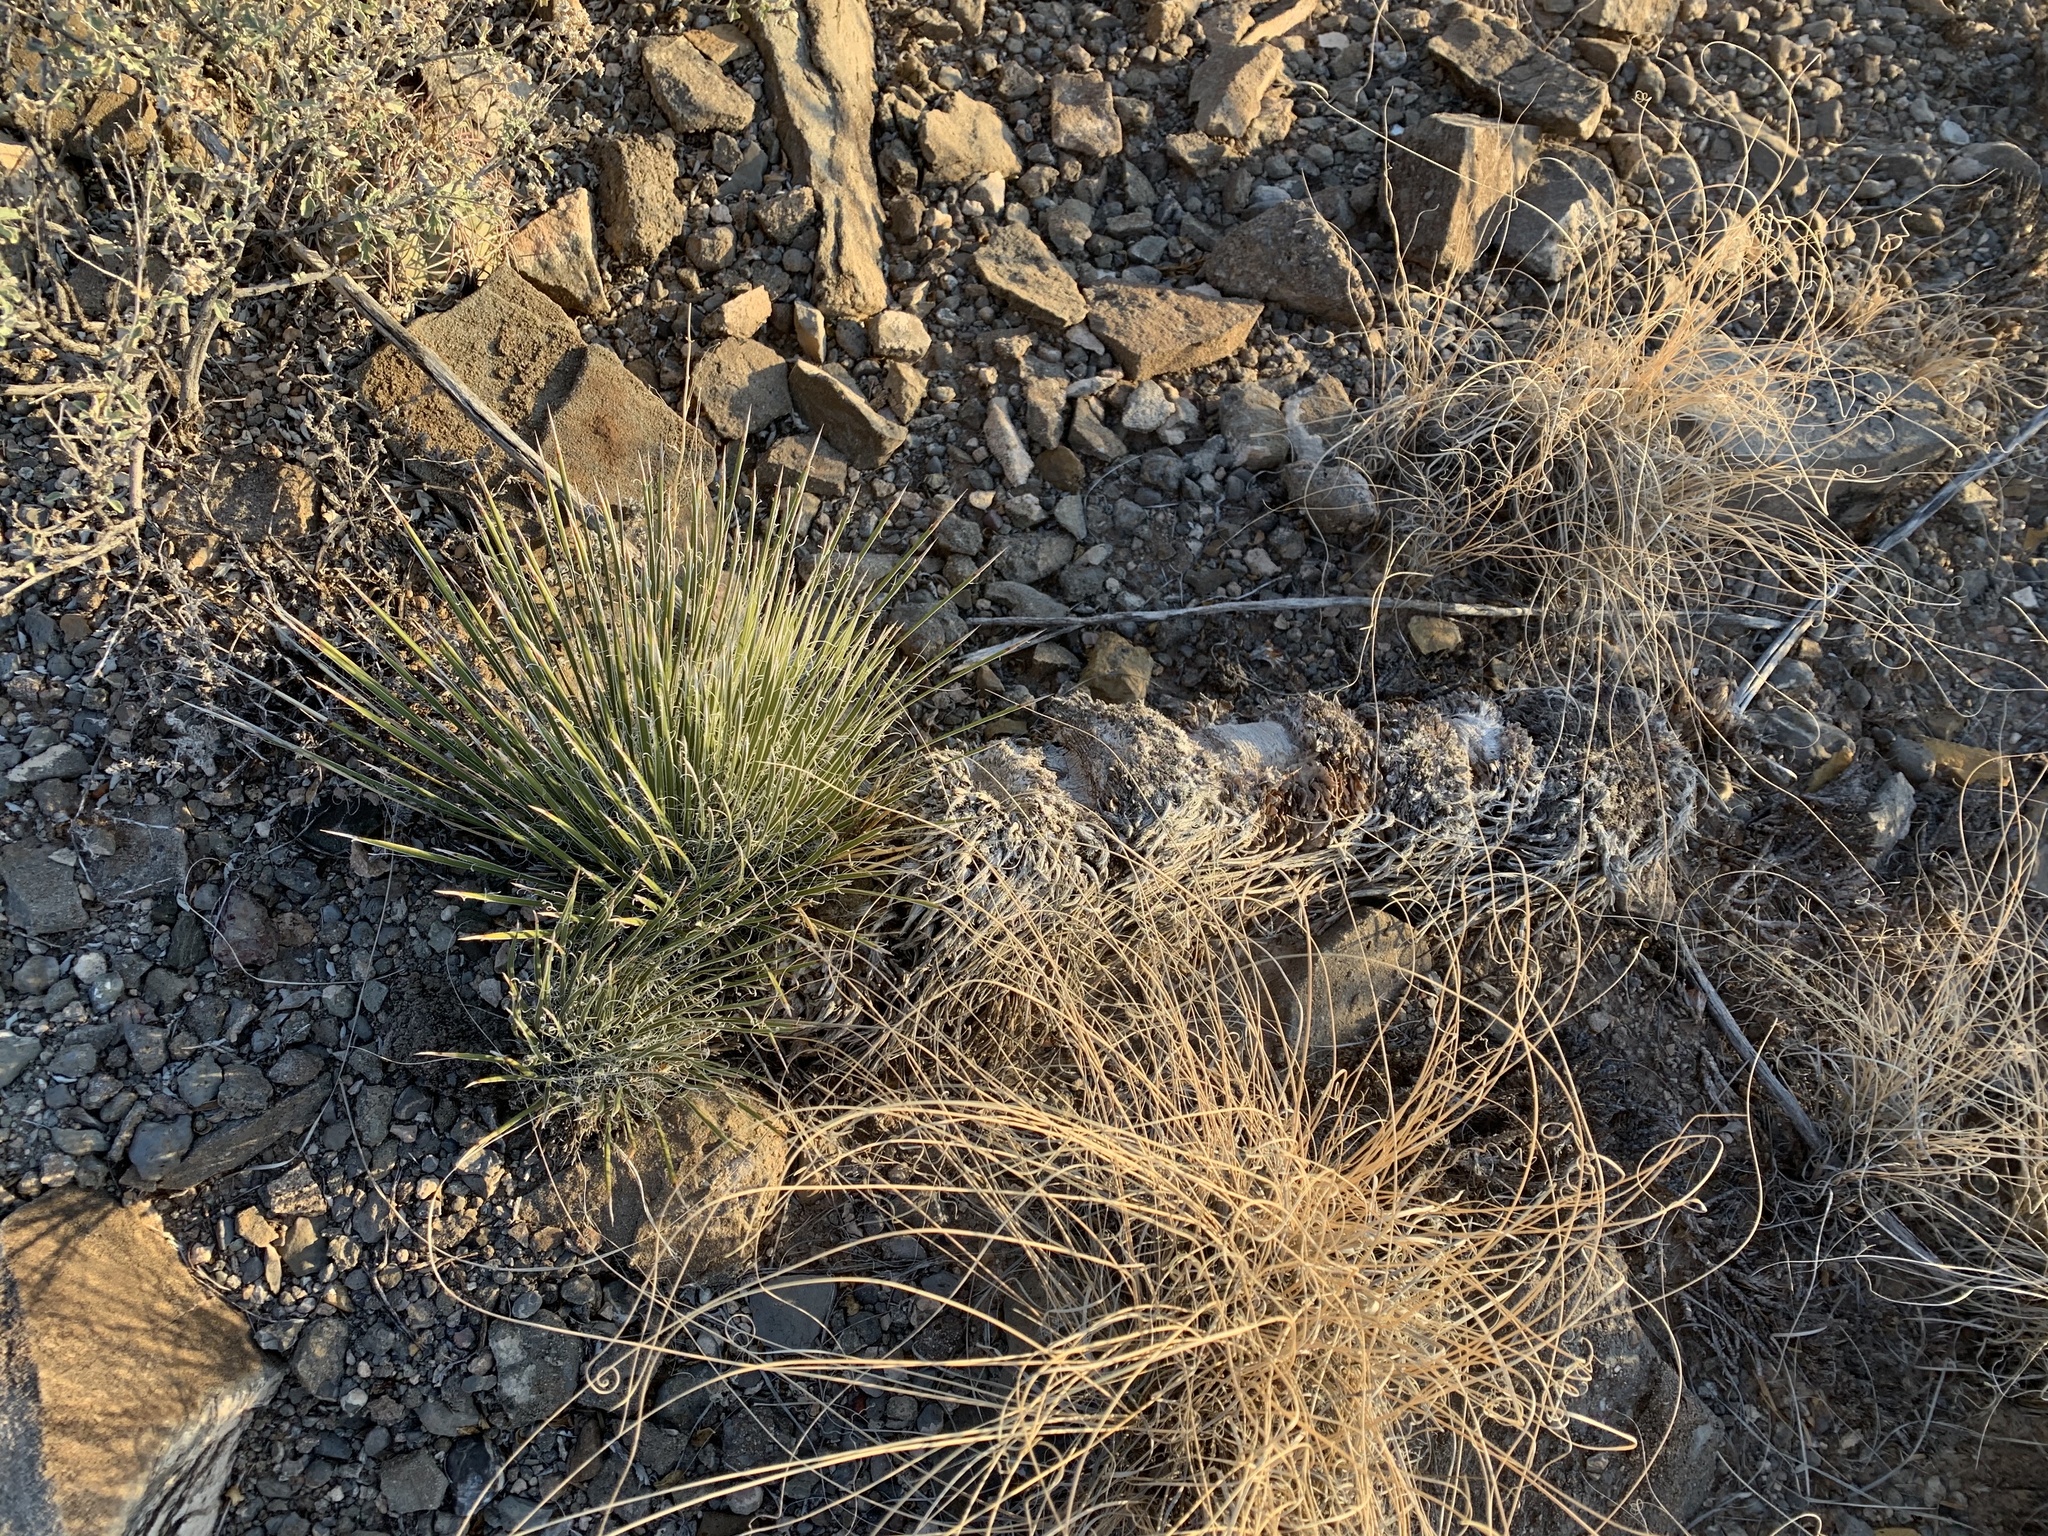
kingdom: Plantae
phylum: Tracheophyta
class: Liliopsida
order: Asparagales
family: Asparagaceae
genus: Yucca
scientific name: Yucca elata
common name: Palmella
